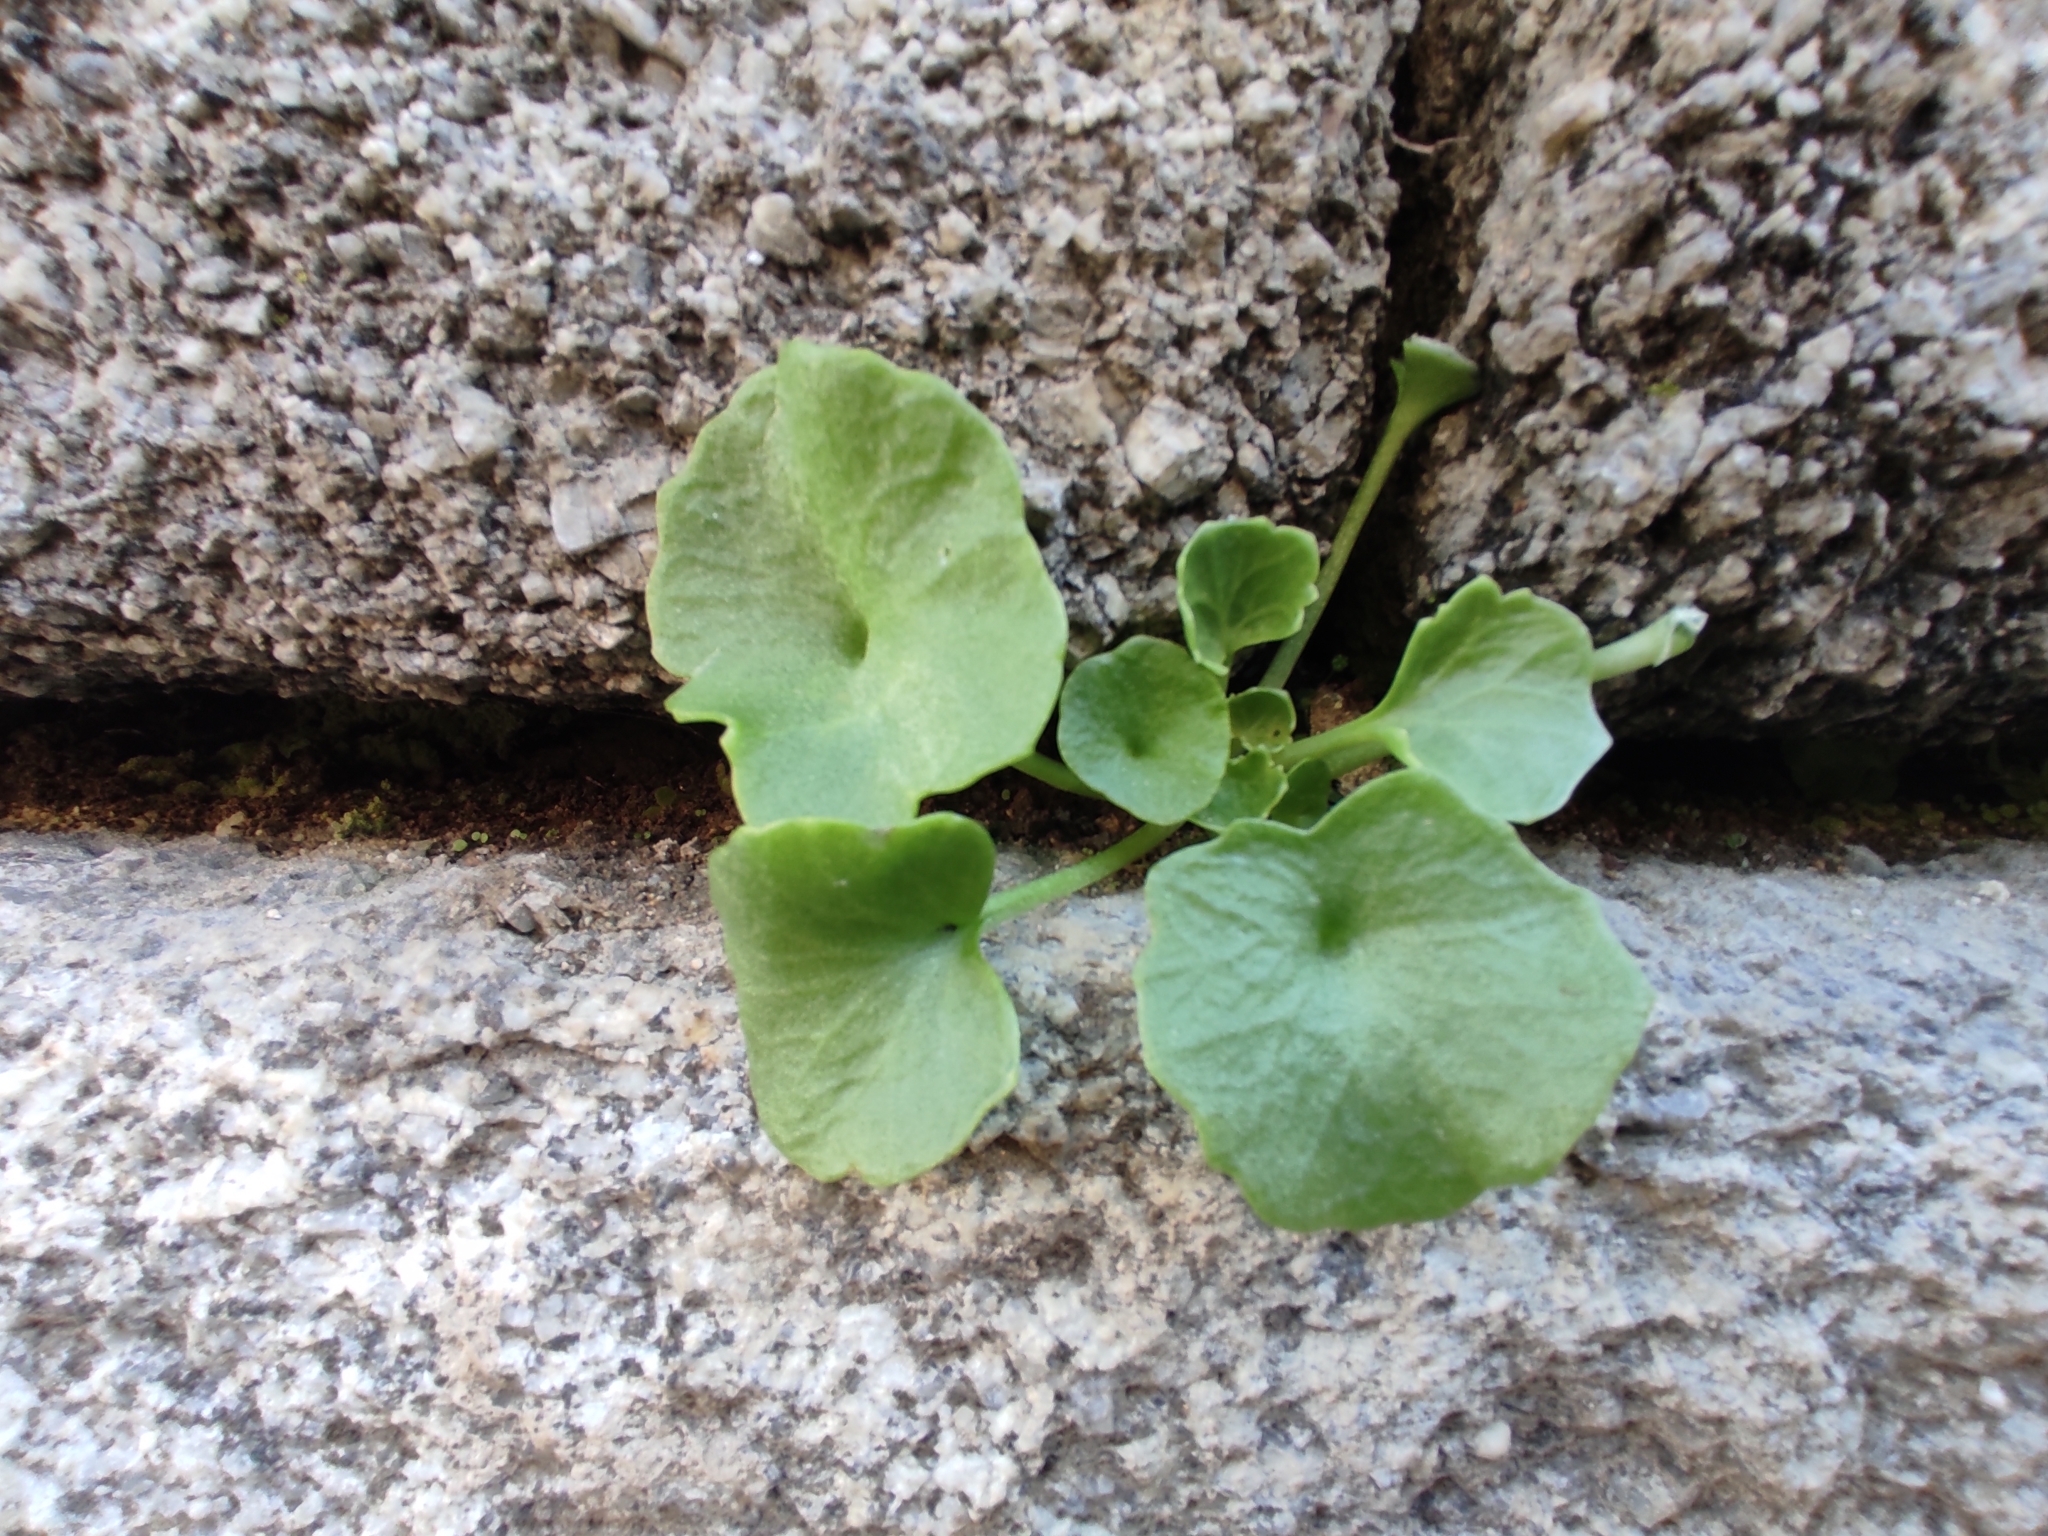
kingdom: Plantae
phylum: Tracheophyta
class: Magnoliopsida
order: Saxifragales
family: Crassulaceae
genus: Umbilicus
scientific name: Umbilicus rupestris
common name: Navelwort
